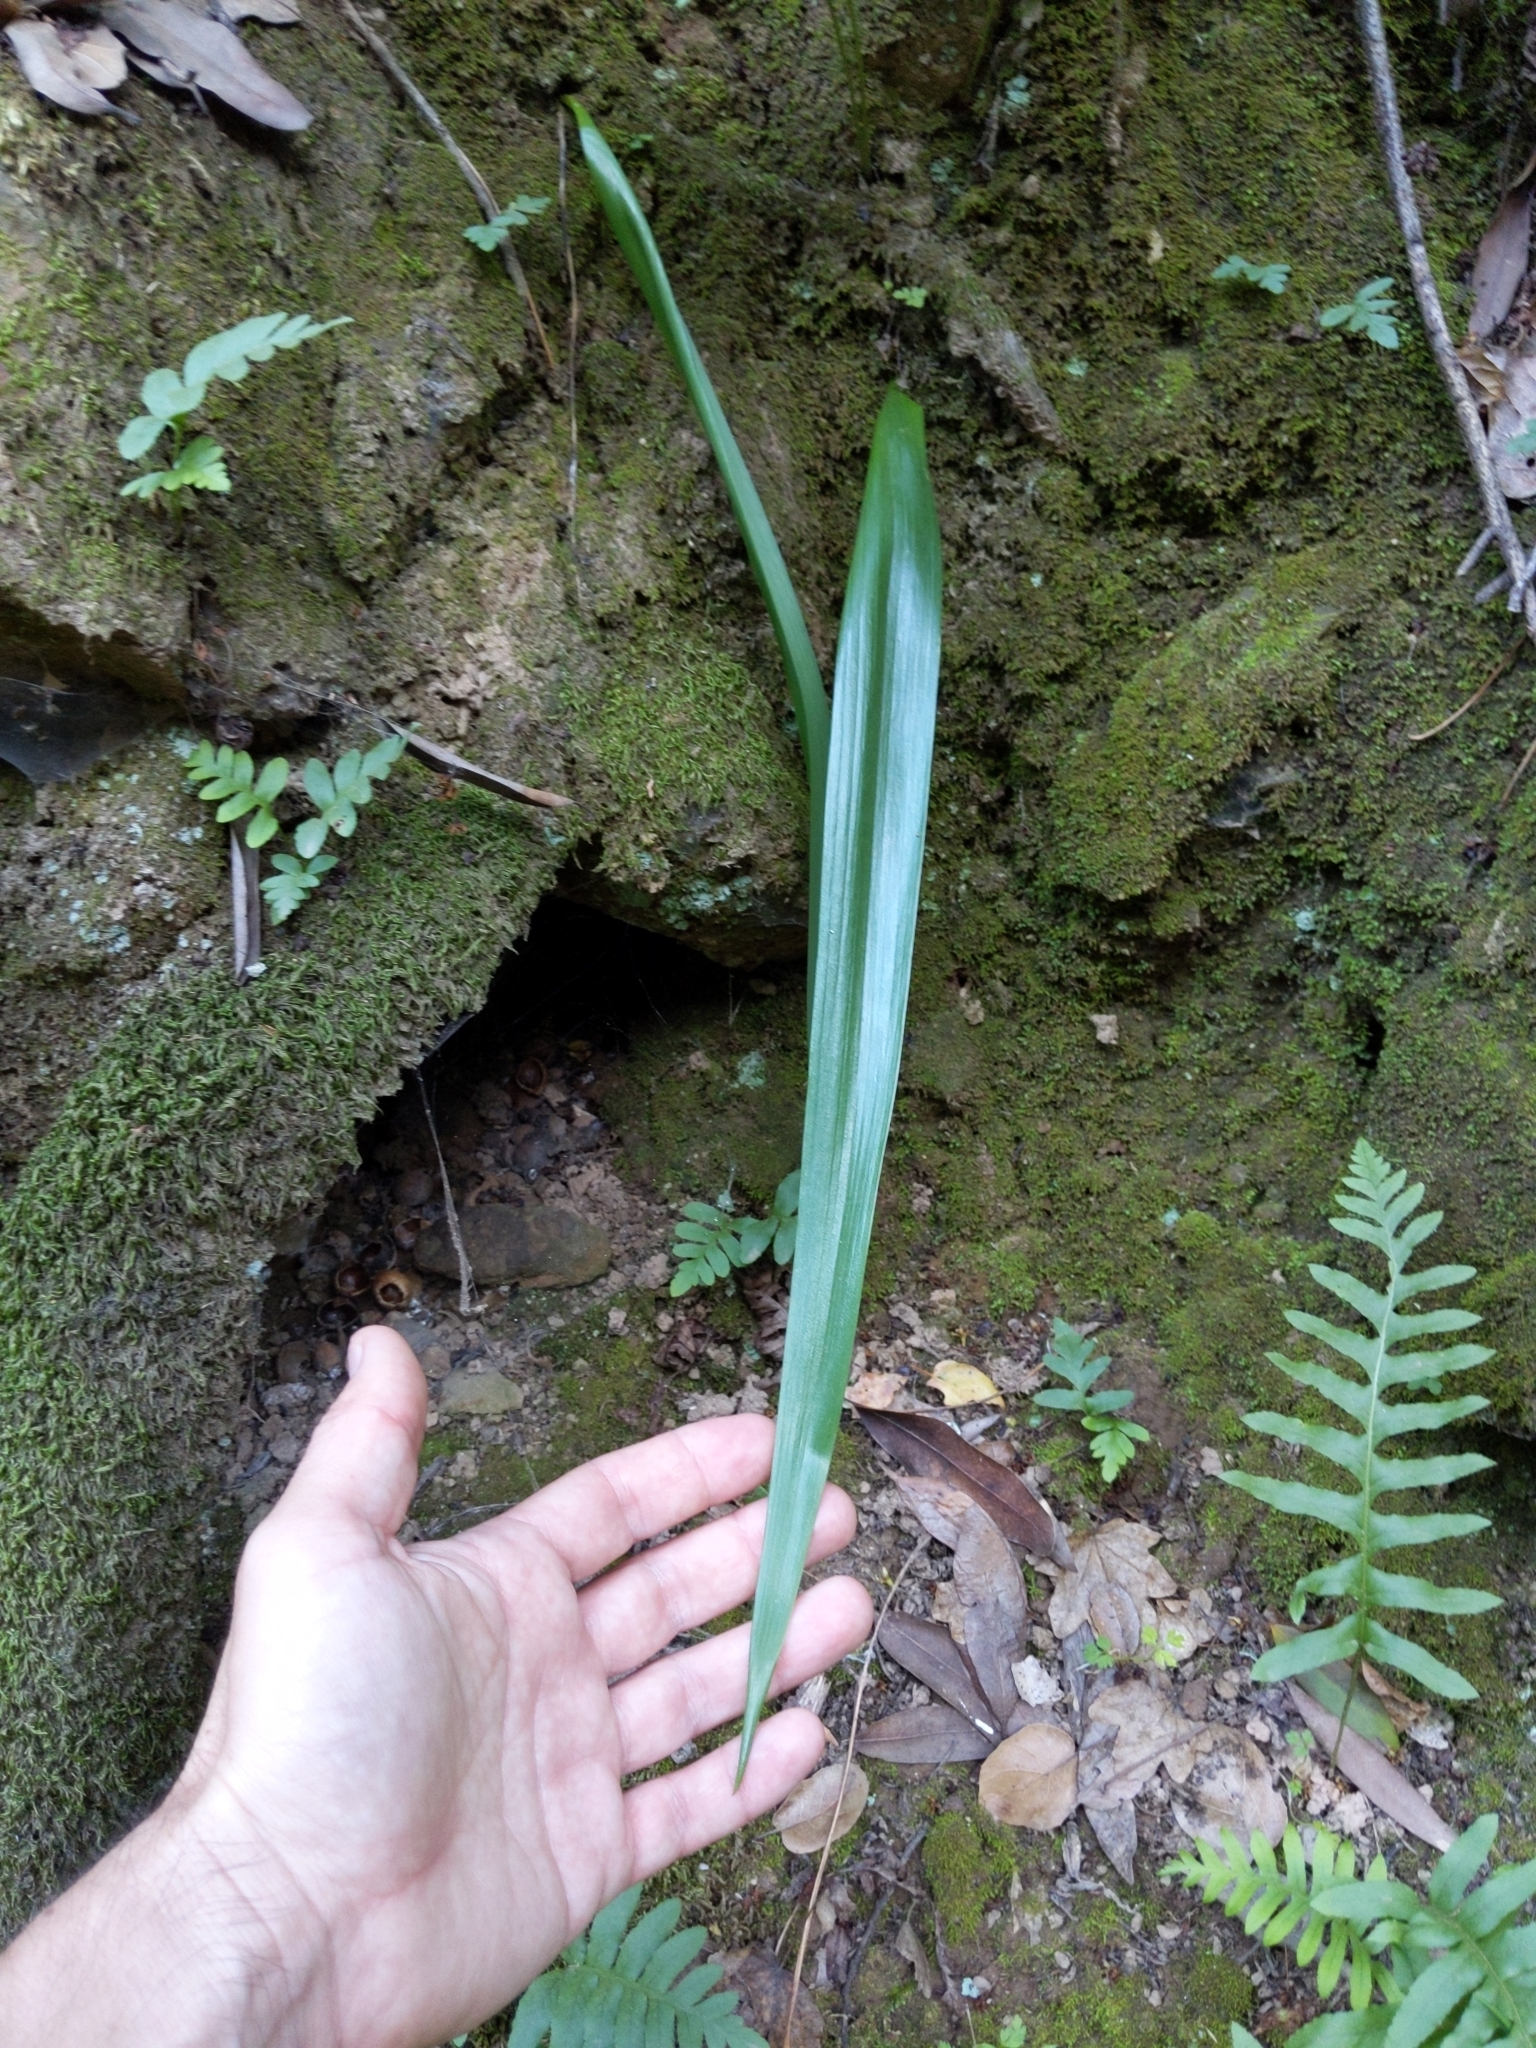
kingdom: Plantae
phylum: Tracheophyta
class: Liliopsida
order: Liliales
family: Liliaceae
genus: Calochortus
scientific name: Calochortus albus
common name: Fairy-lantern
